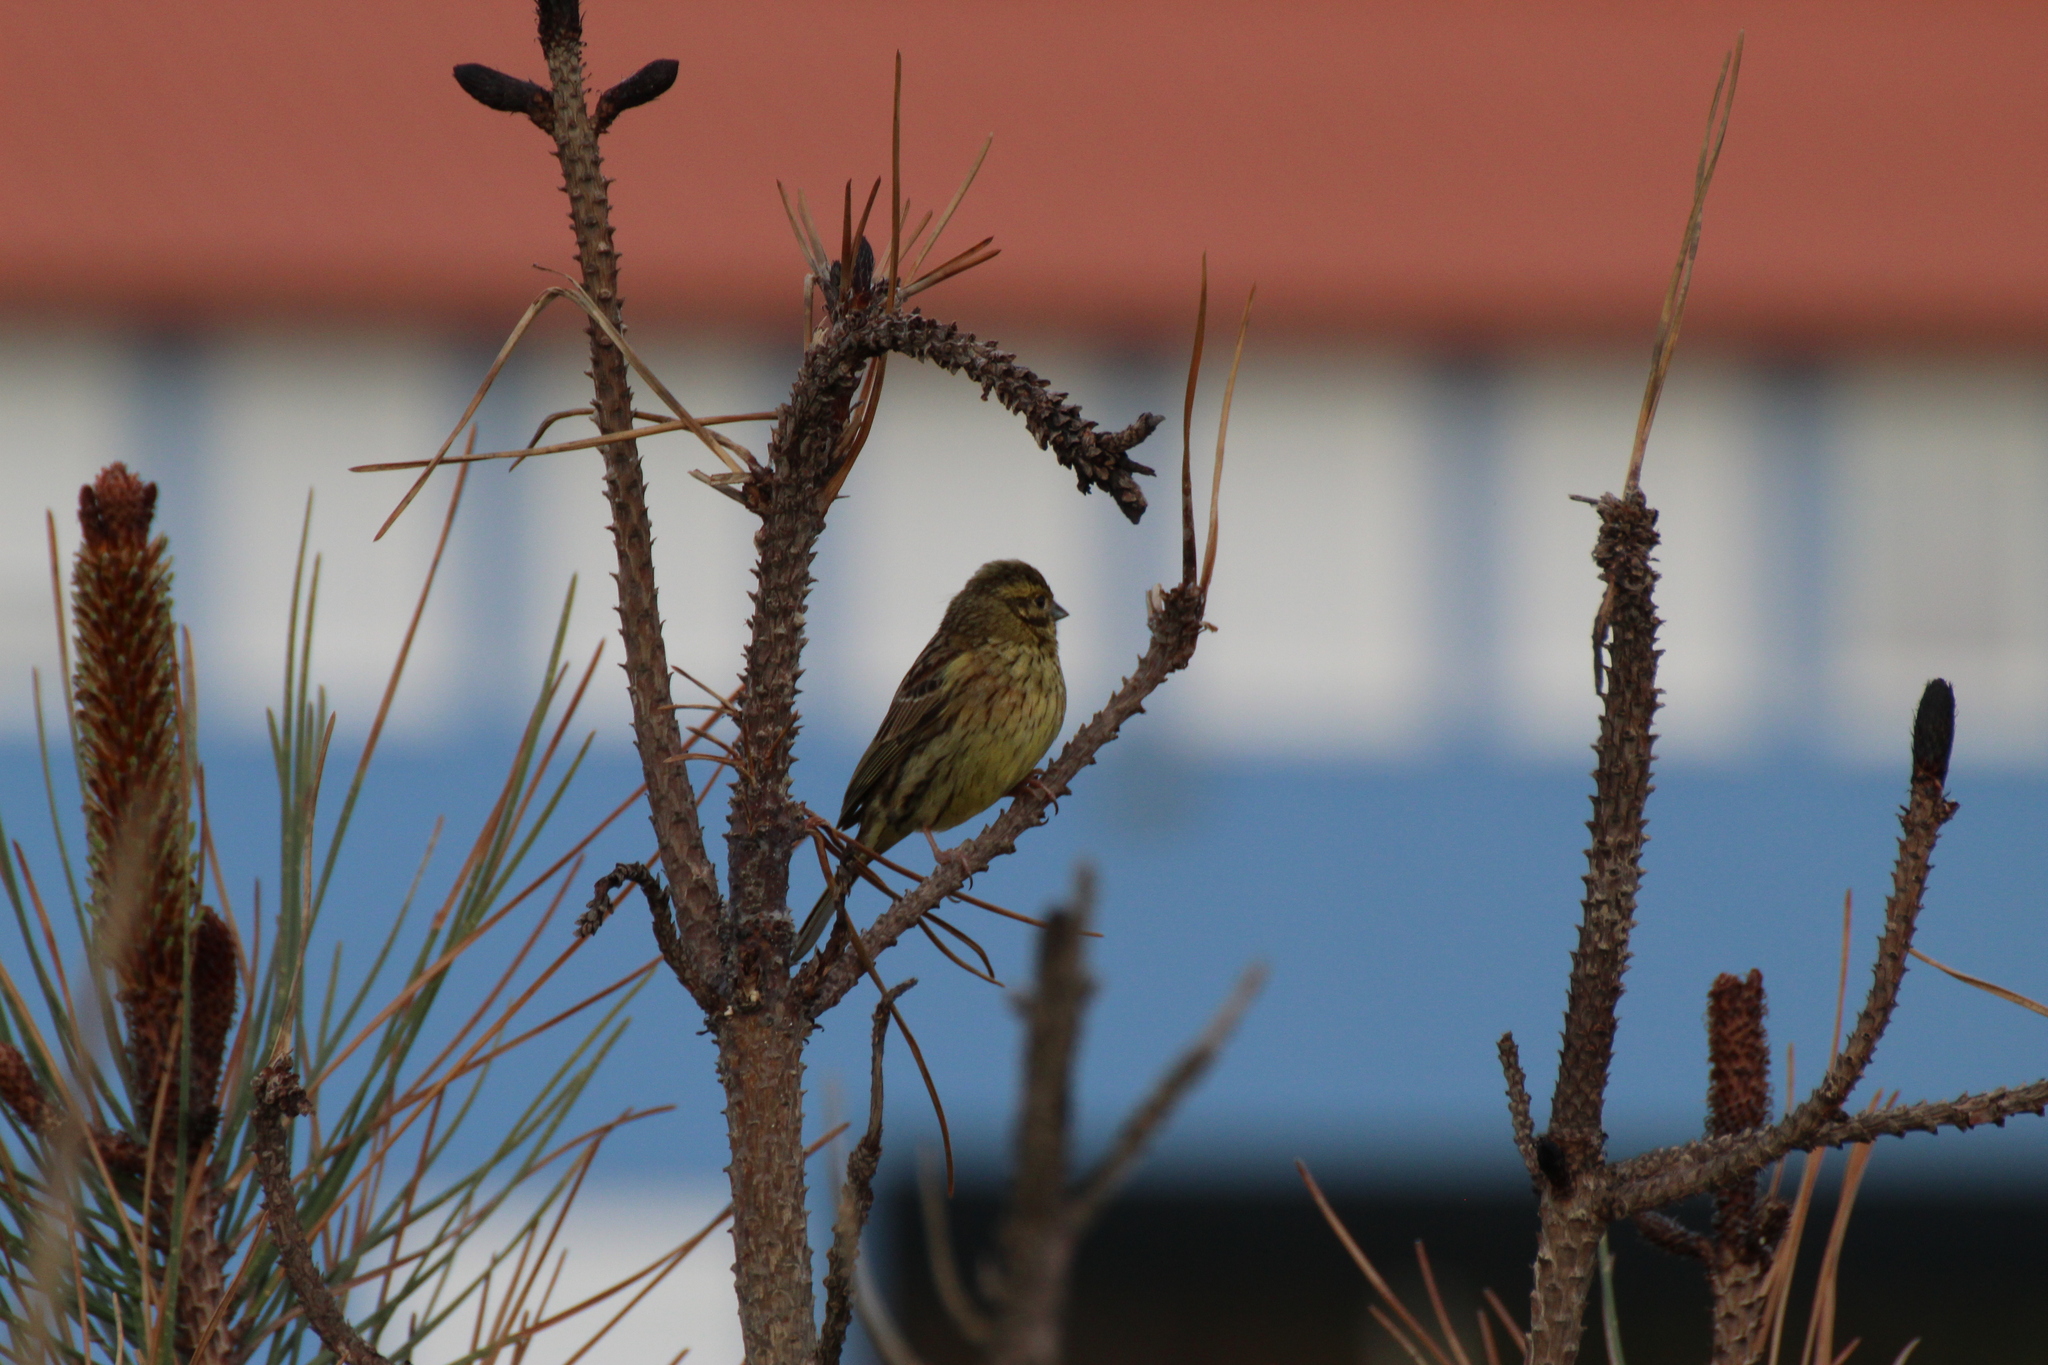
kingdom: Animalia
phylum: Chordata
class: Aves
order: Passeriformes
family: Emberizidae
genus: Emberiza
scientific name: Emberiza cirlus
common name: Cirl bunting
